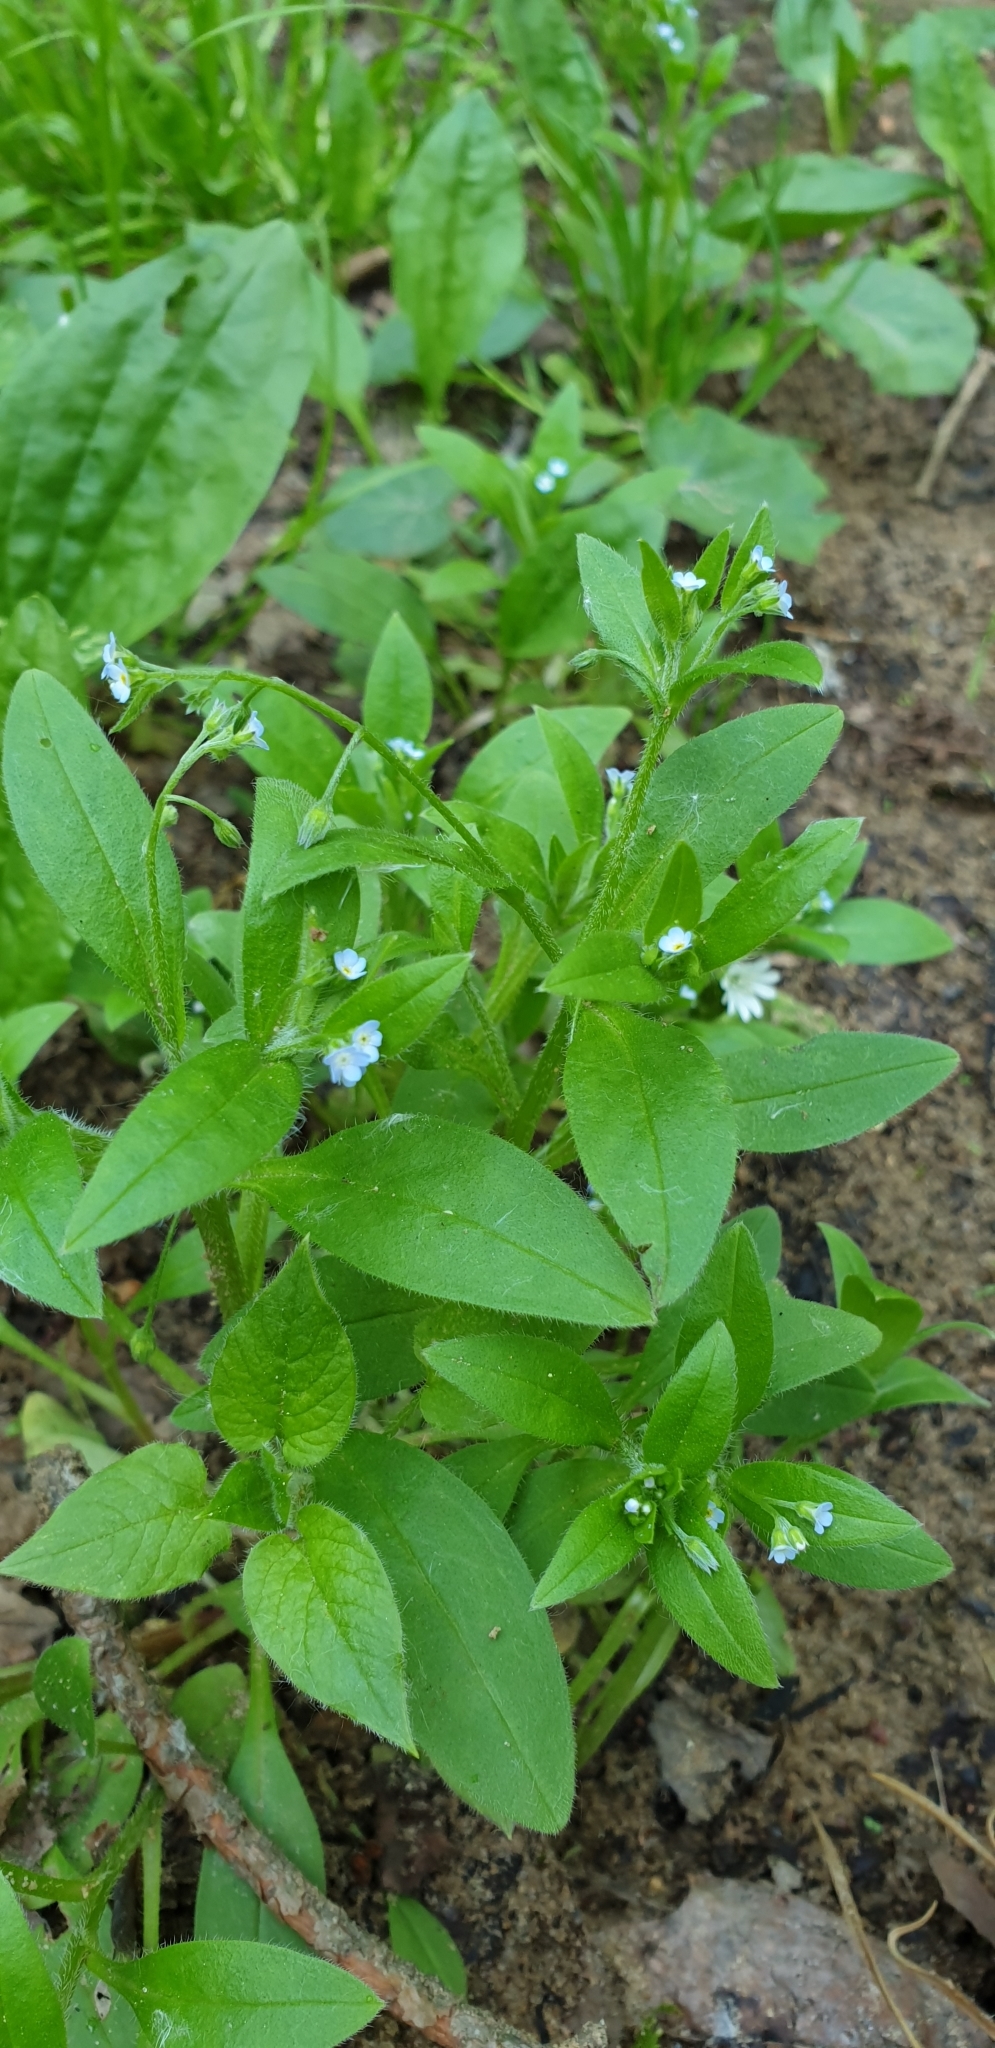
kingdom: Plantae
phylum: Tracheophyta
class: Magnoliopsida
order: Boraginales
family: Boraginaceae
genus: Myosotis
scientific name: Myosotis sparsiflora
